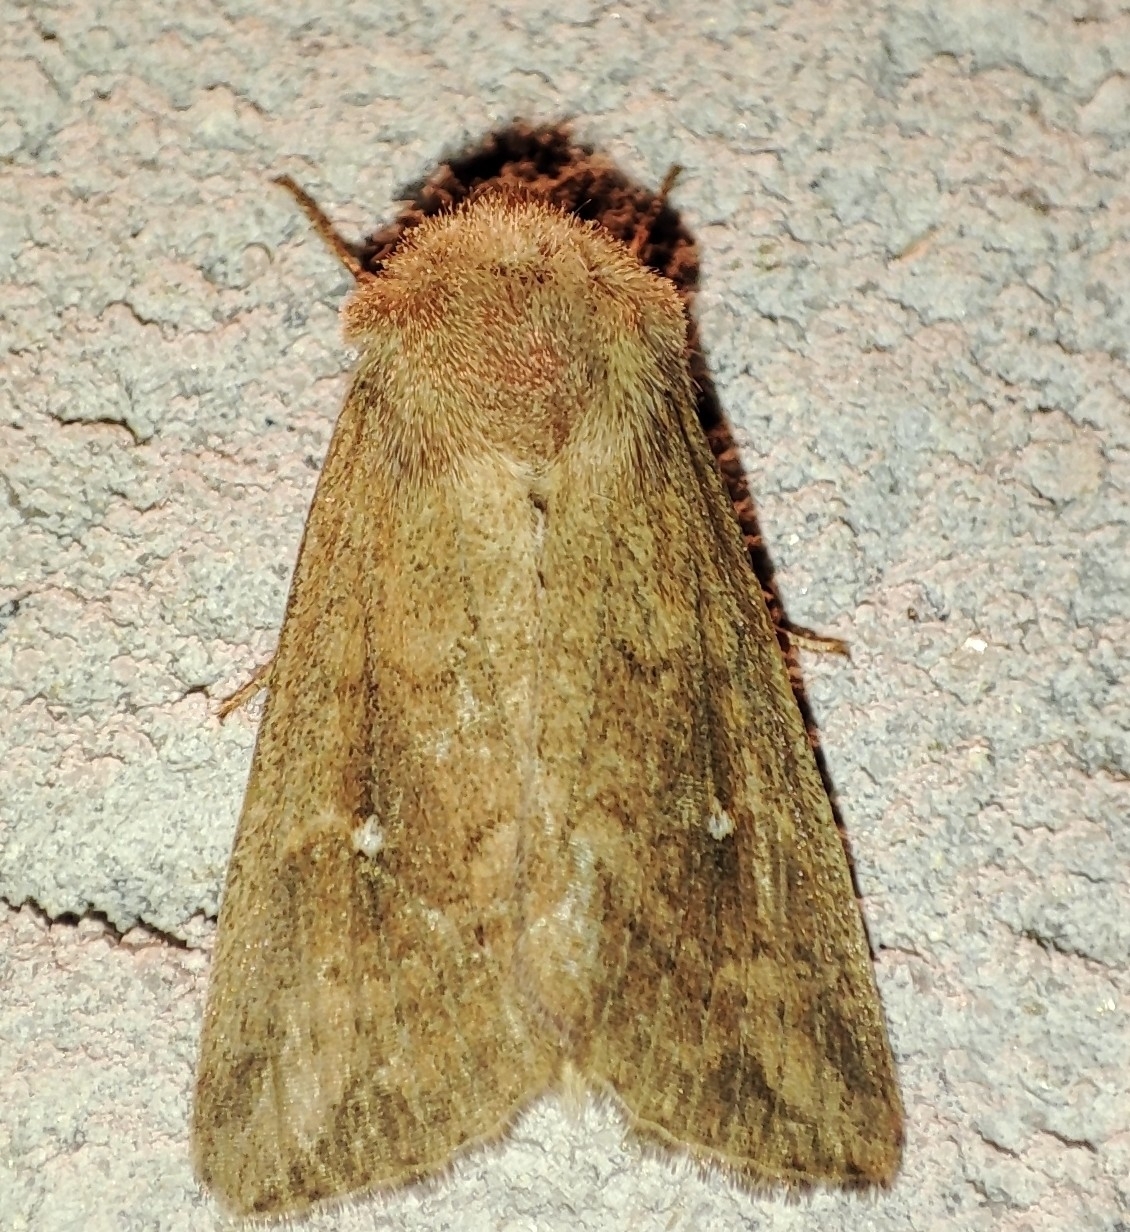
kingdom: Animalia
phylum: Arthropoda
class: Insecta
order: Lepidoptera
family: Noctuidae
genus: Mythimna
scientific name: Mythimna albipuncta
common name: White-point
